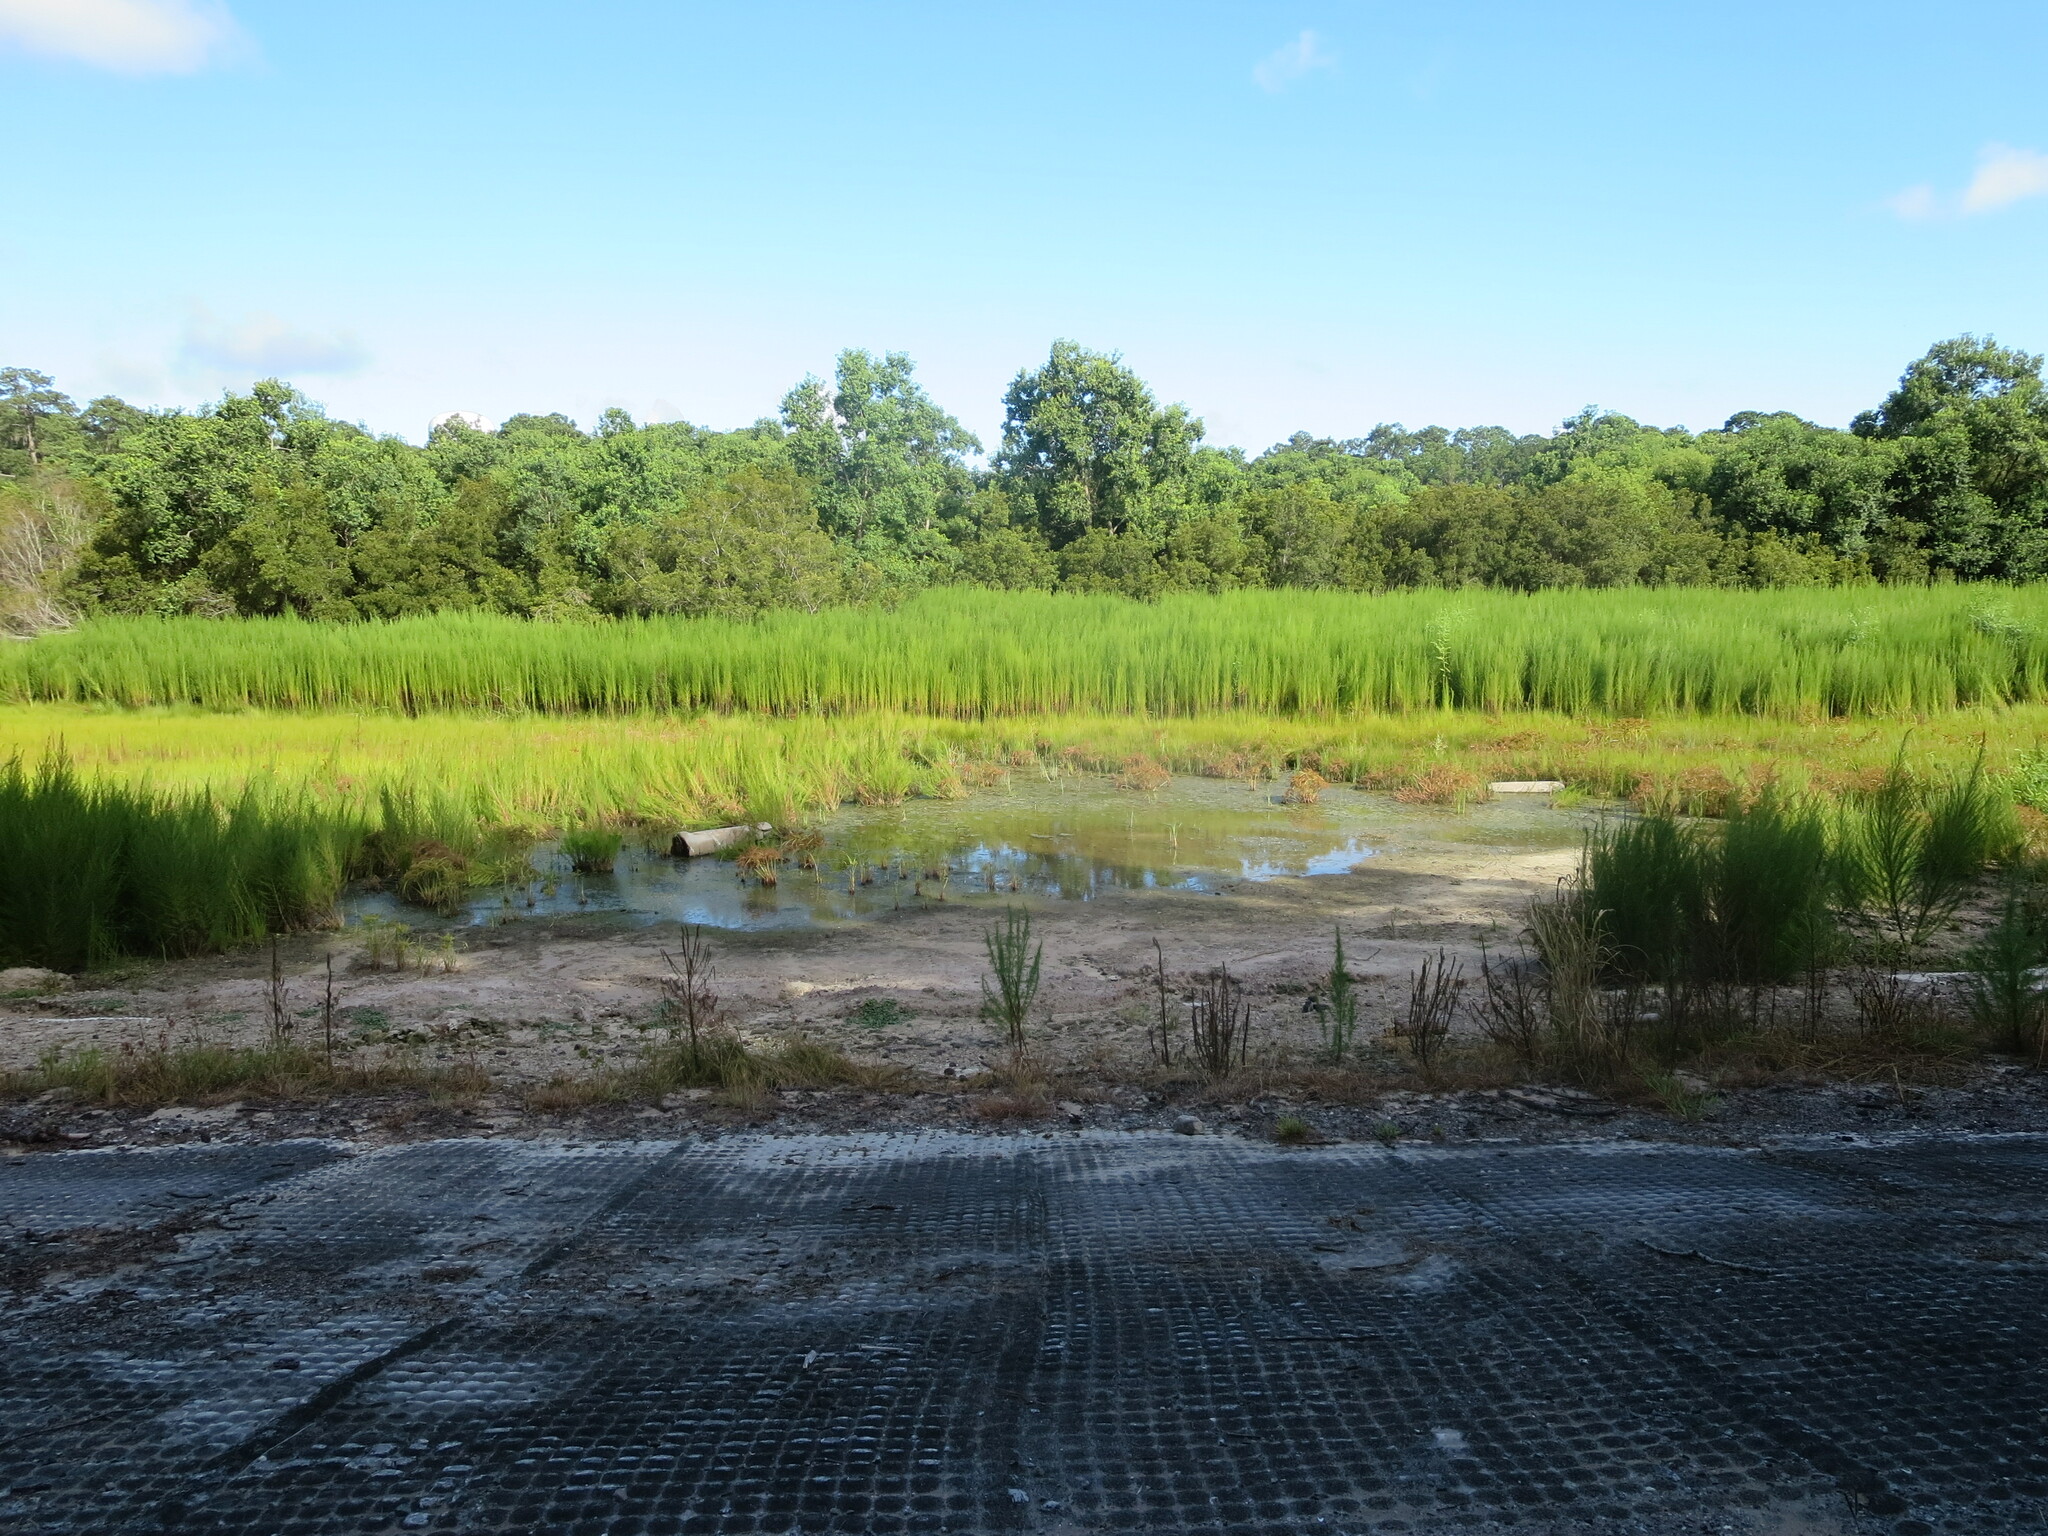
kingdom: Plantae
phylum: Tracheophyta
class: Magnoliopsida
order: Asterales
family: Asteraceae
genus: Eupatorium
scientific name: Eupatorium capillifolium
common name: Dog-fennel
